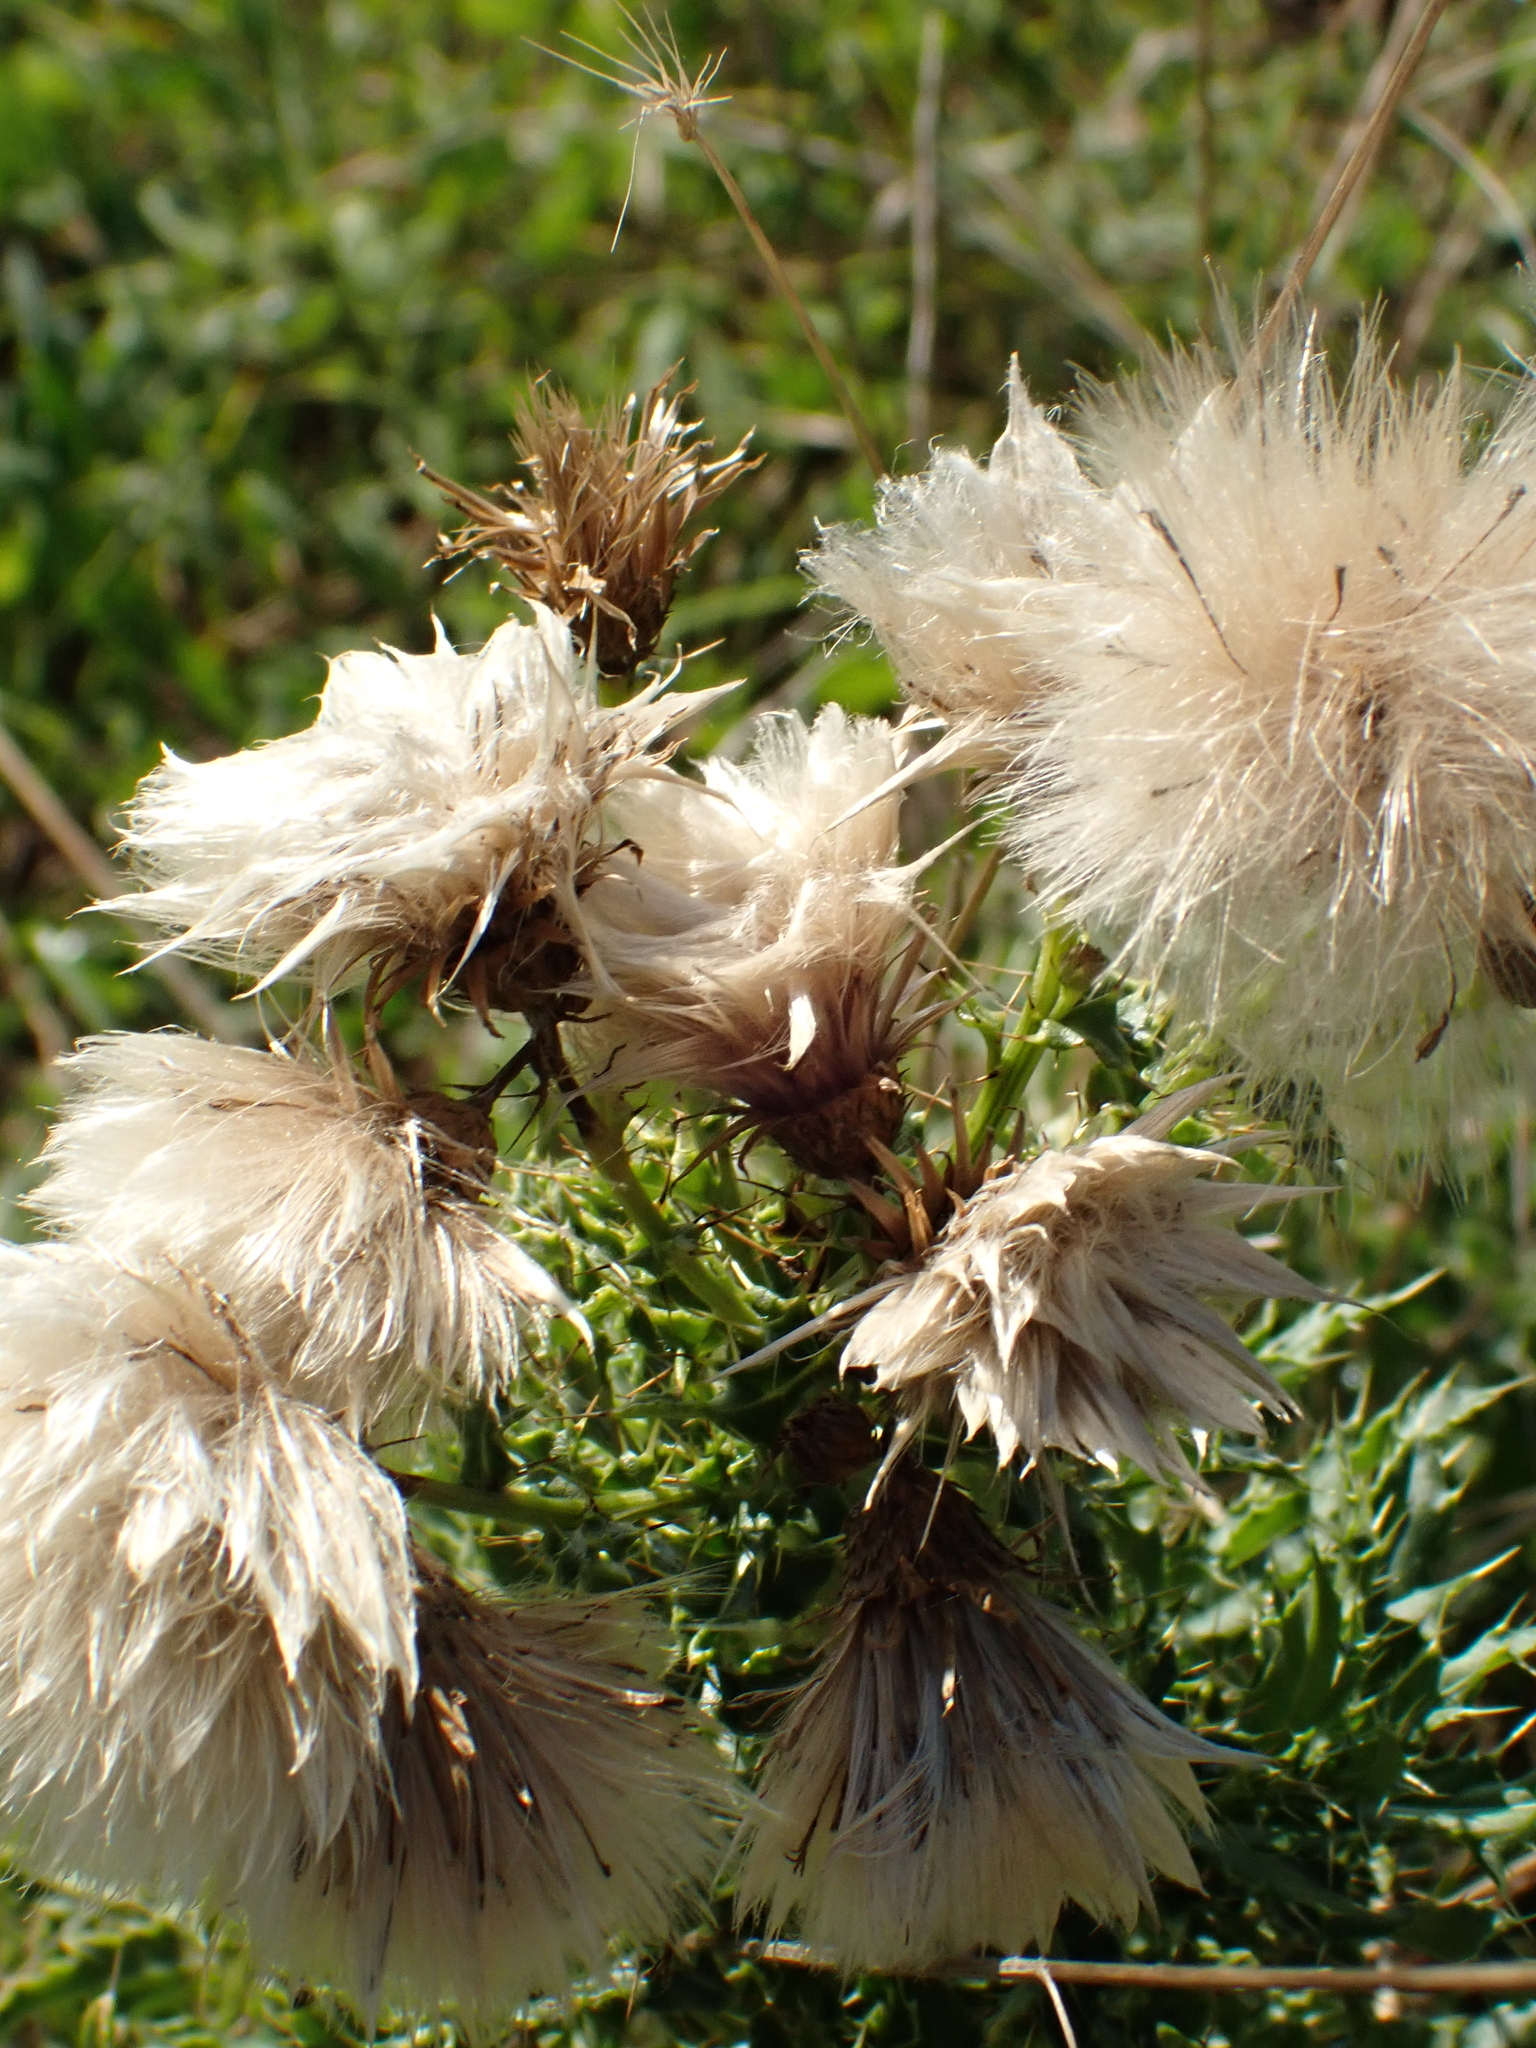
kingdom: Plantae
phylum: Tracheophyta
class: Magnoliopsida
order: Asterales
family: Asteraceae
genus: Cirsium
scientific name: Cirsium arvense
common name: Creeping thistle
